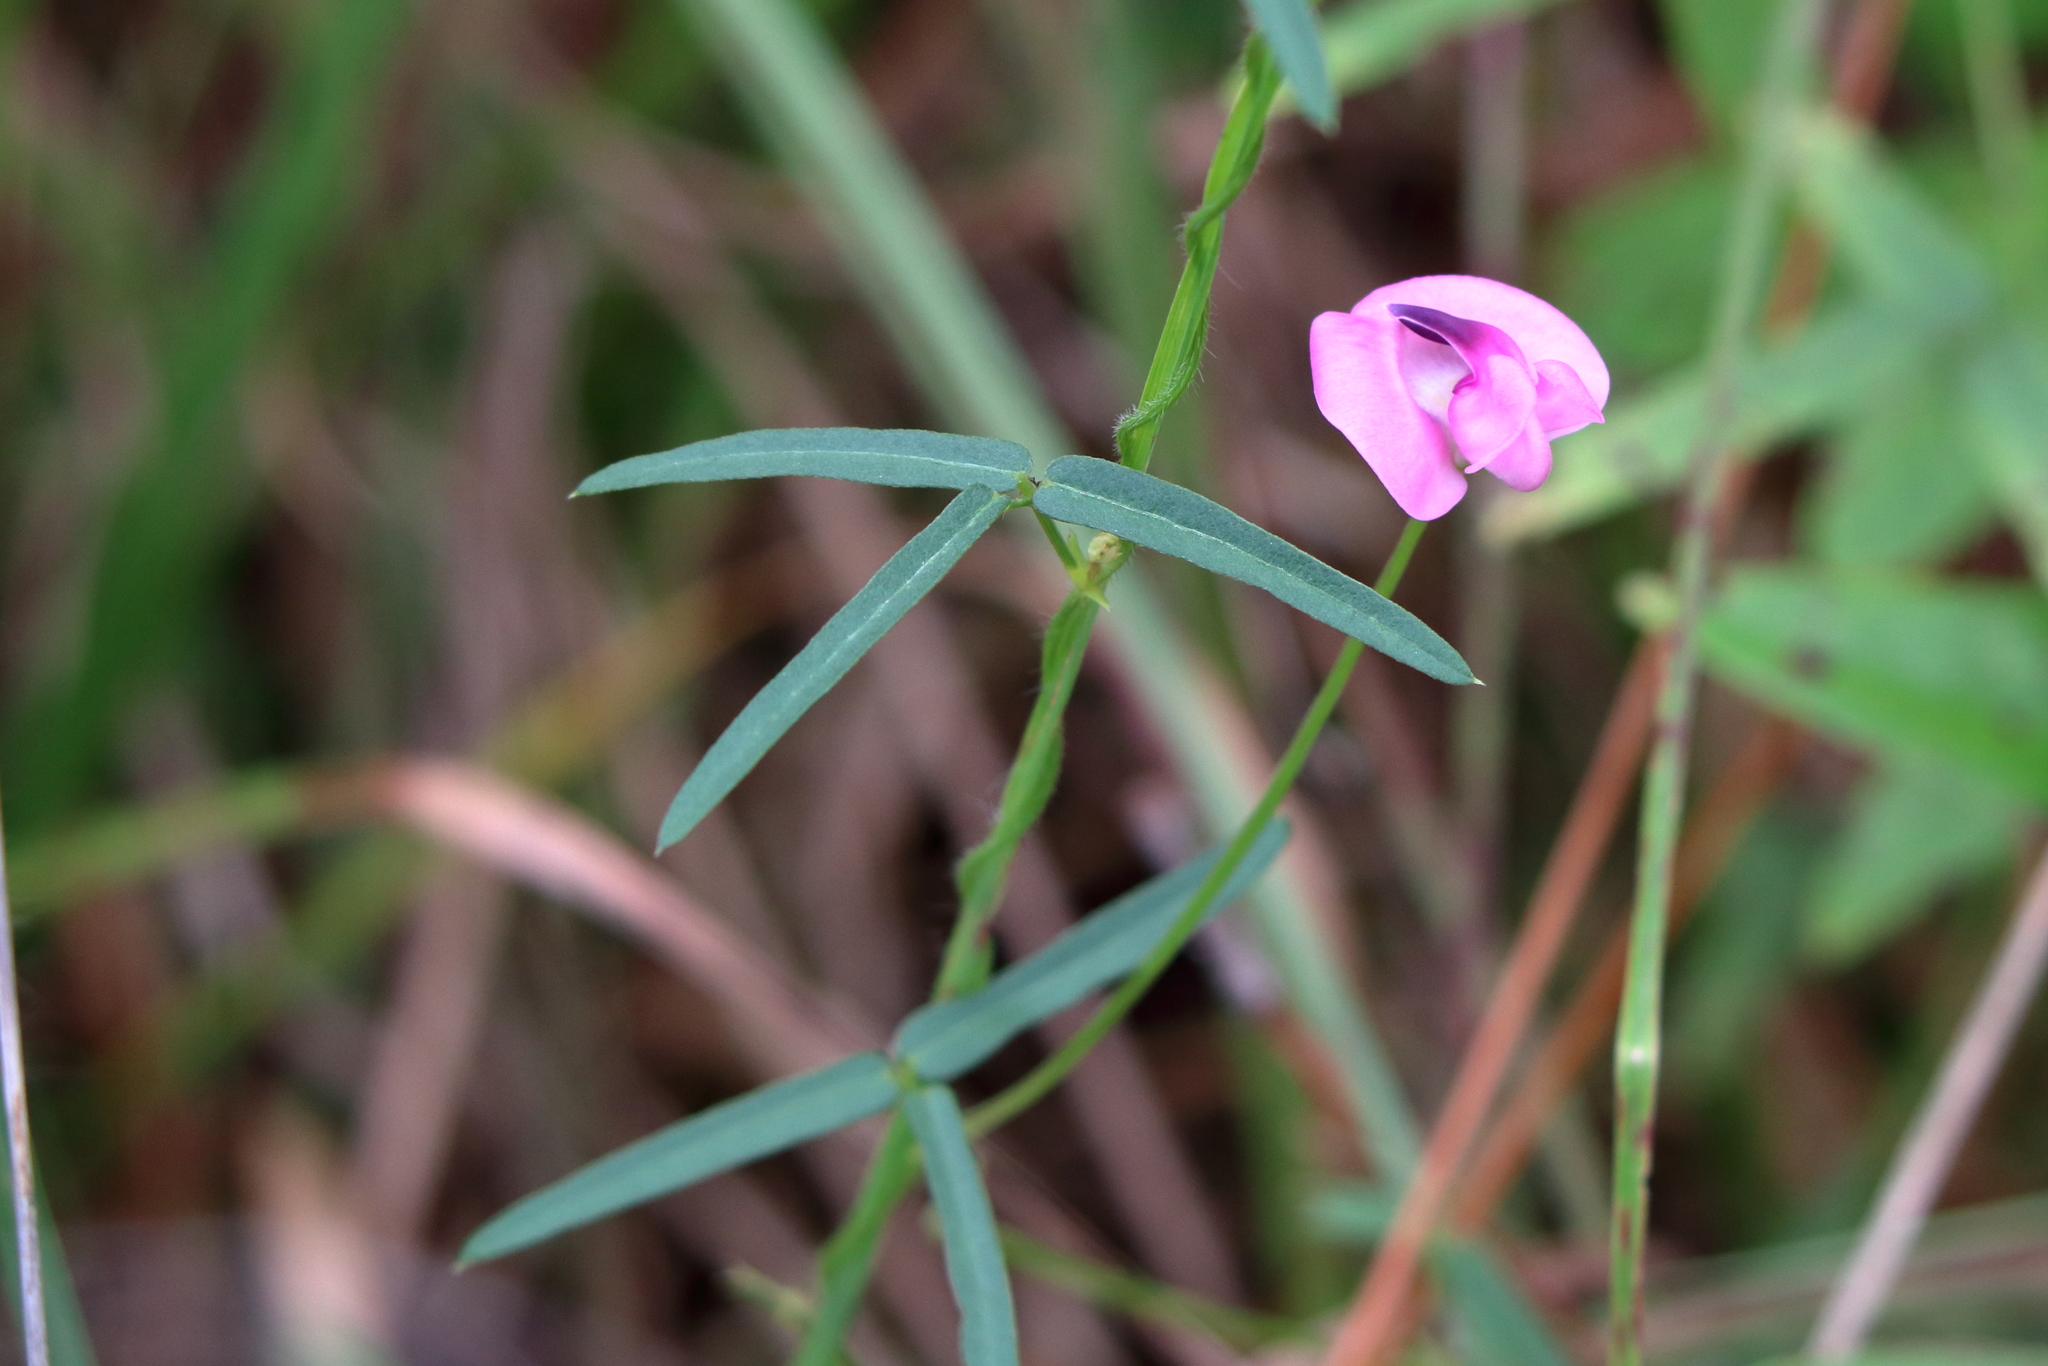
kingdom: Plantae
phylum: Tracheophyta
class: Magnoliopsida
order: Fabales
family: Fabaceae
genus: Strophostyles
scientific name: Strophostyles umbellata
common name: Perennial wild bean
